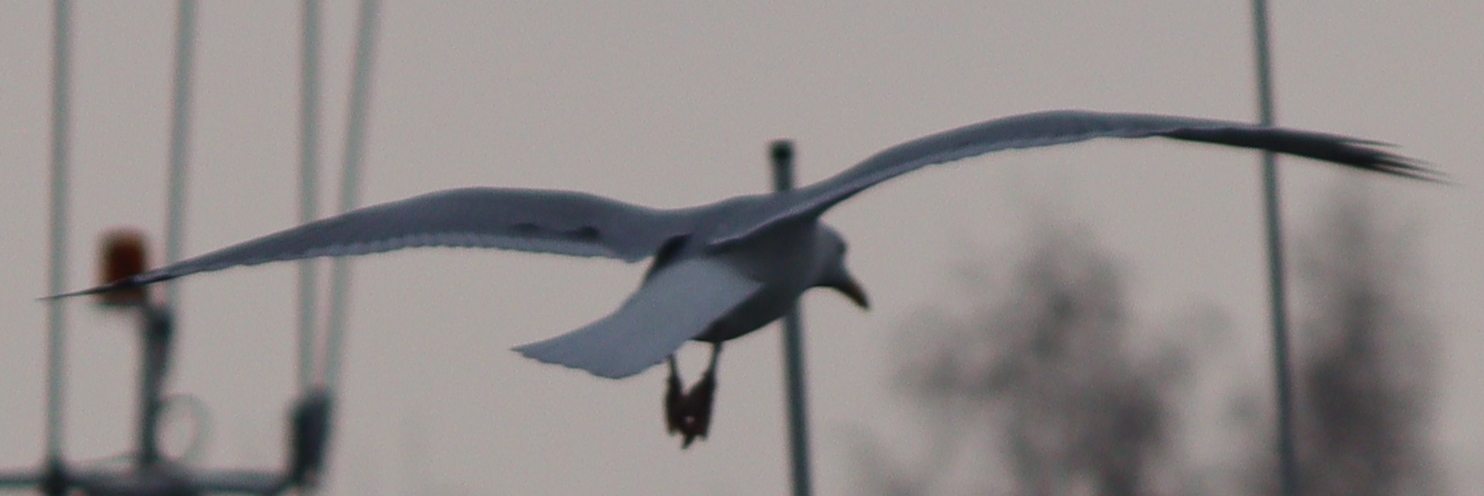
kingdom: Animalia
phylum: Chordata
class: Aves
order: Charadriiformes
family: Laridae
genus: Larus
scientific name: Larus argentatus
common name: Herring gull
